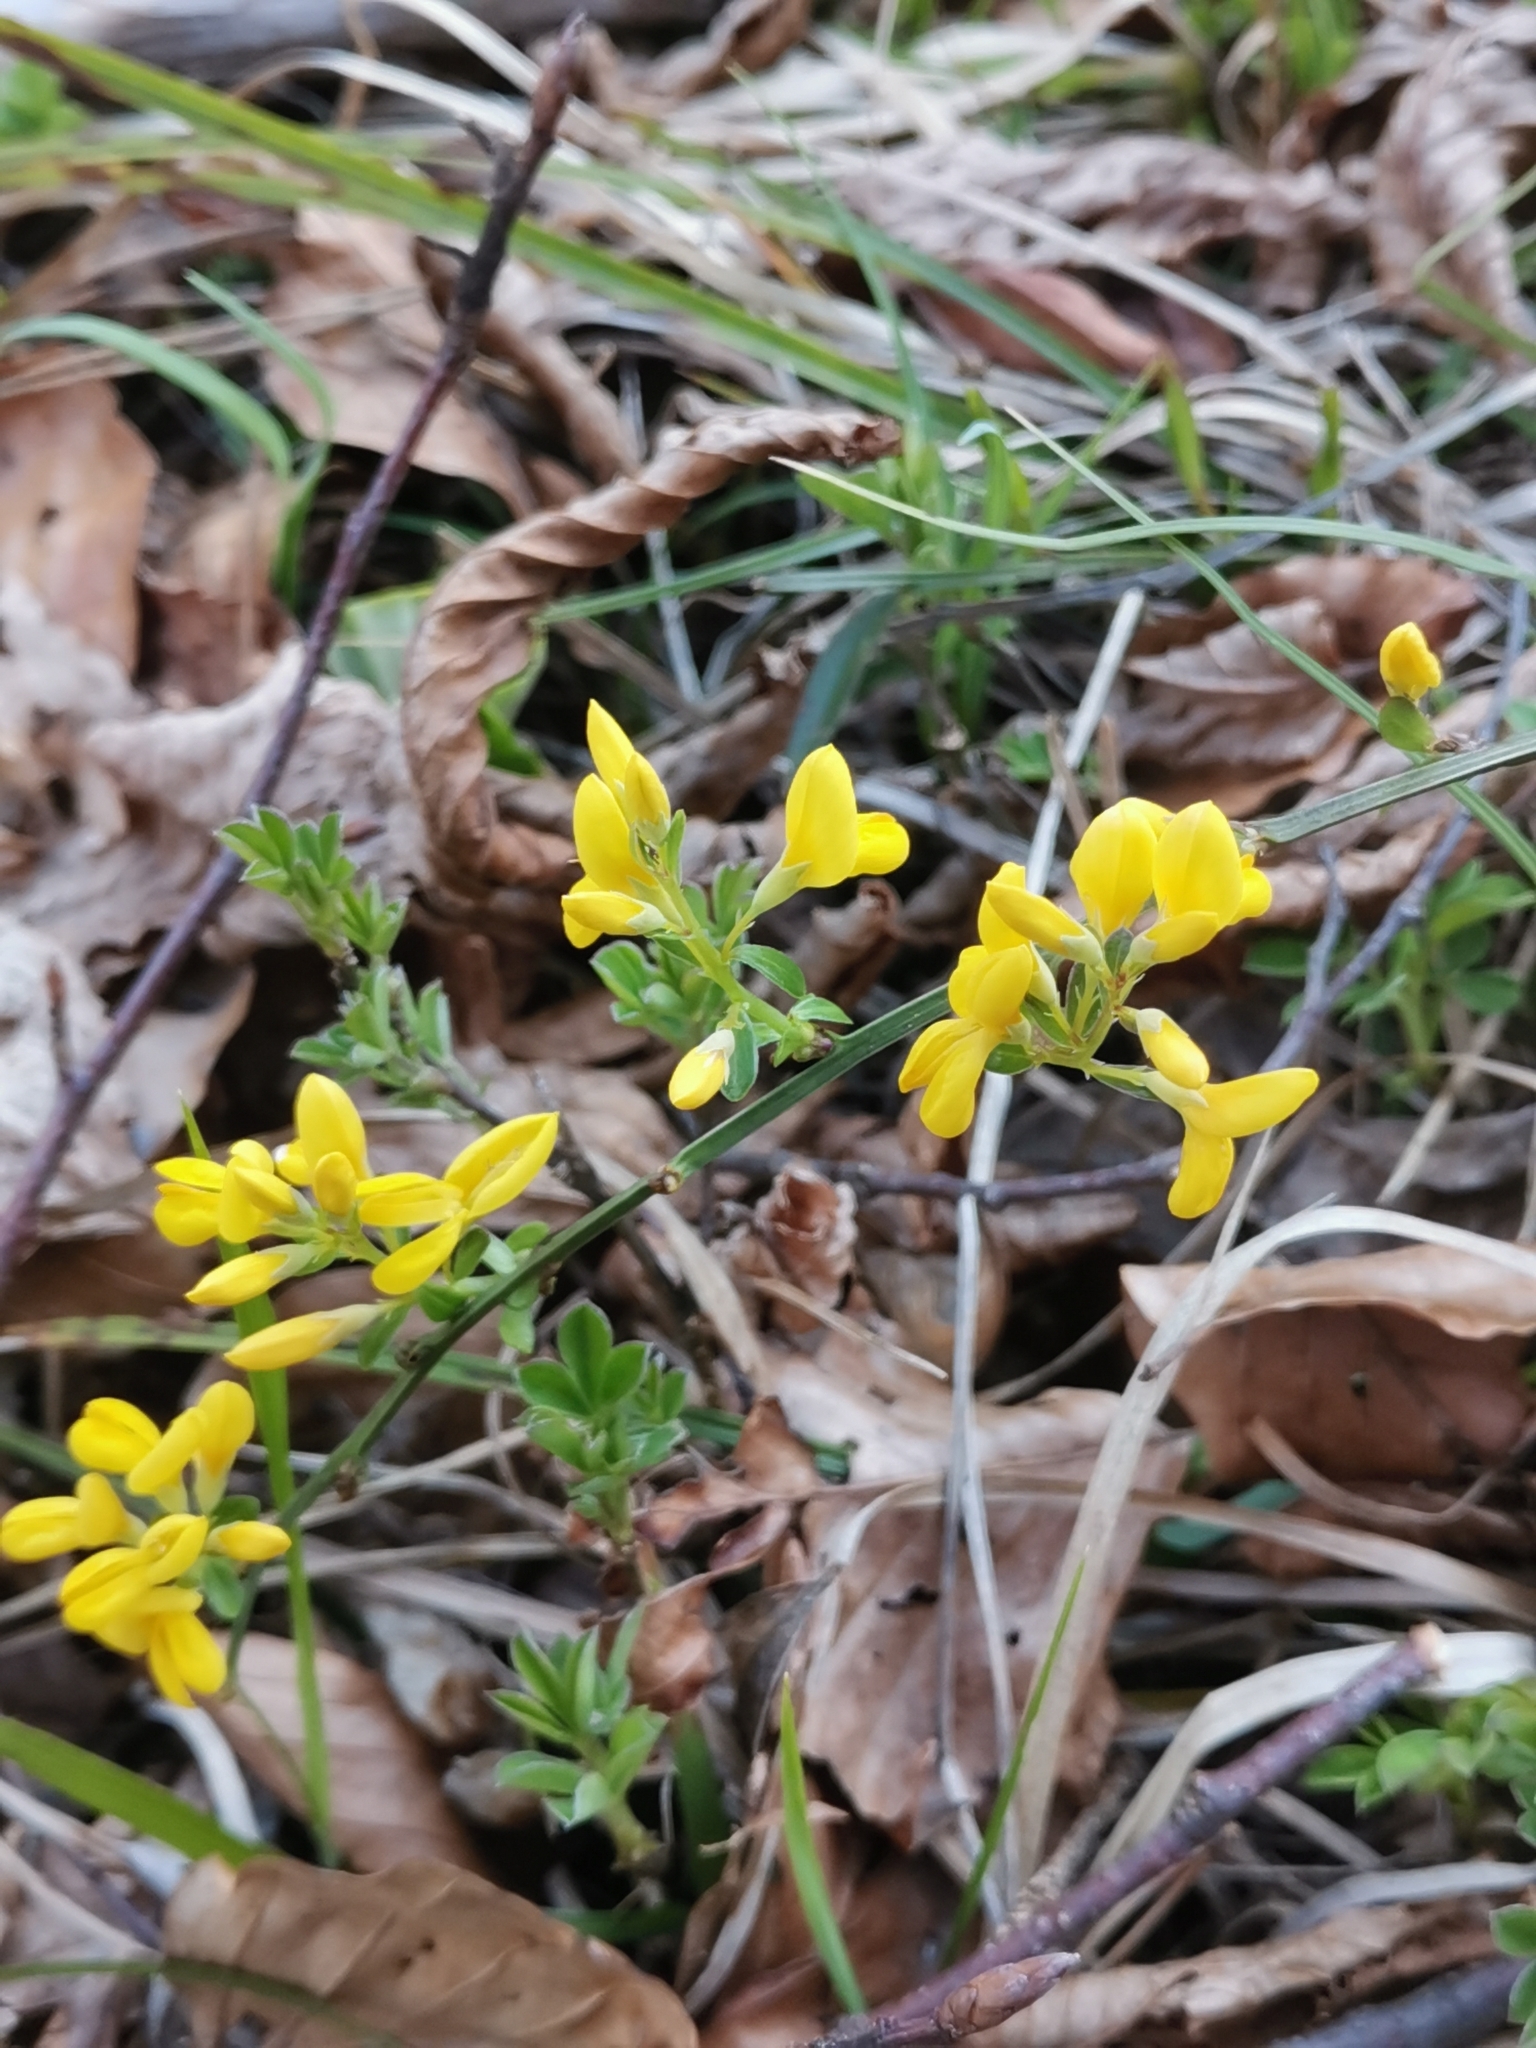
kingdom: Plantae
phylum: Tracheophyta
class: Magnoliopsida
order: Fabales
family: Fabaceae
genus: Genista
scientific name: Genista januensis
